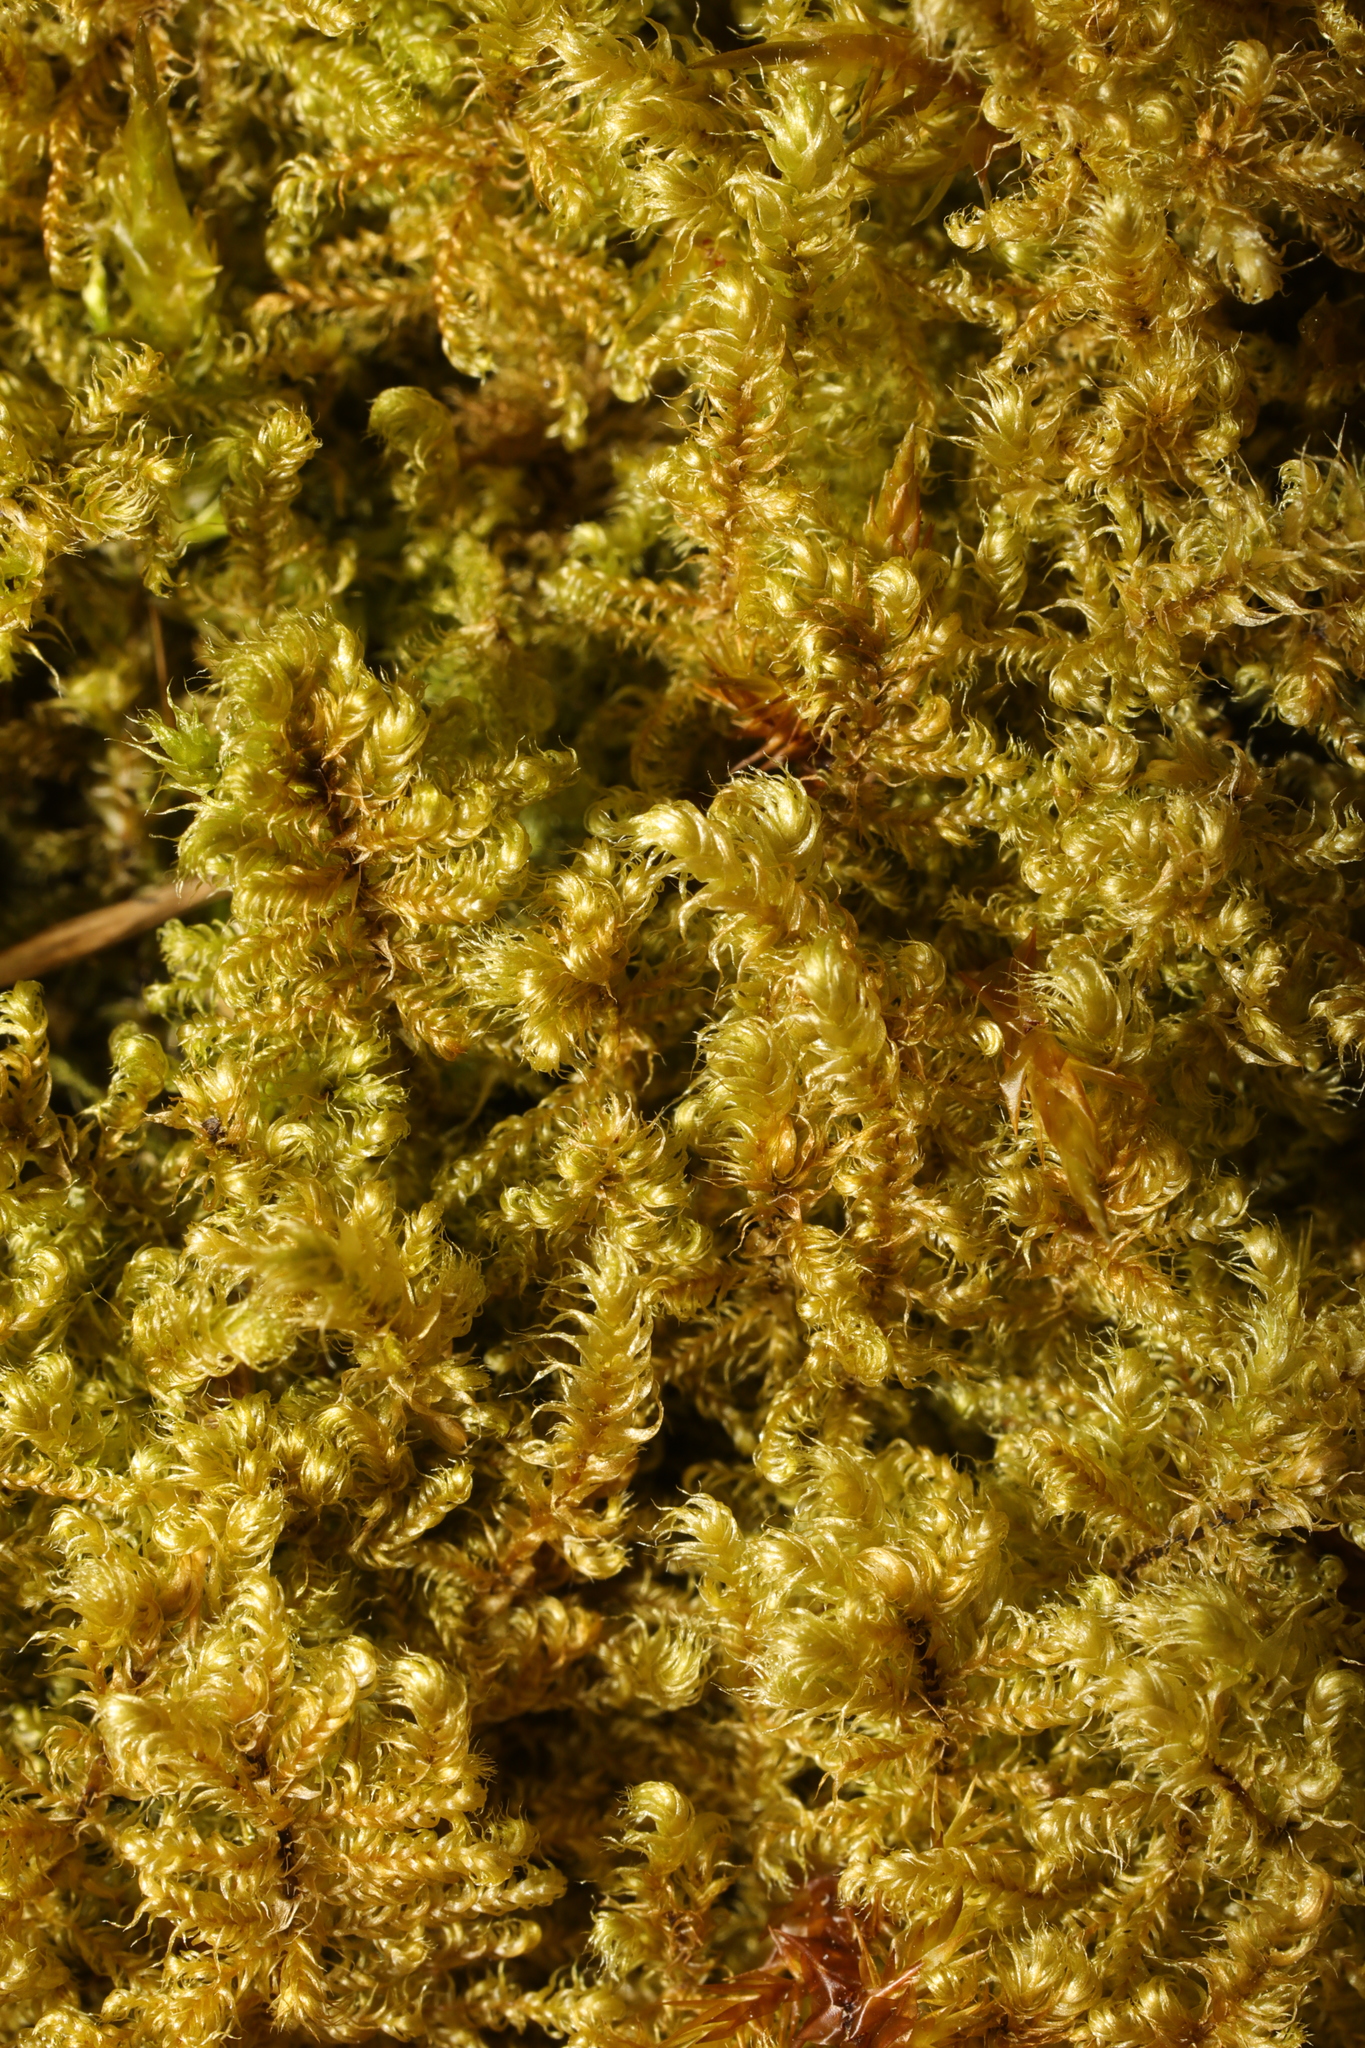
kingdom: Plantae
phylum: Bryophyta
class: Bryopsida
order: Hypnales
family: Myuriaceae
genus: Ctenidium
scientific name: Ctenidium molluscum
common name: Chalk comb-moss
